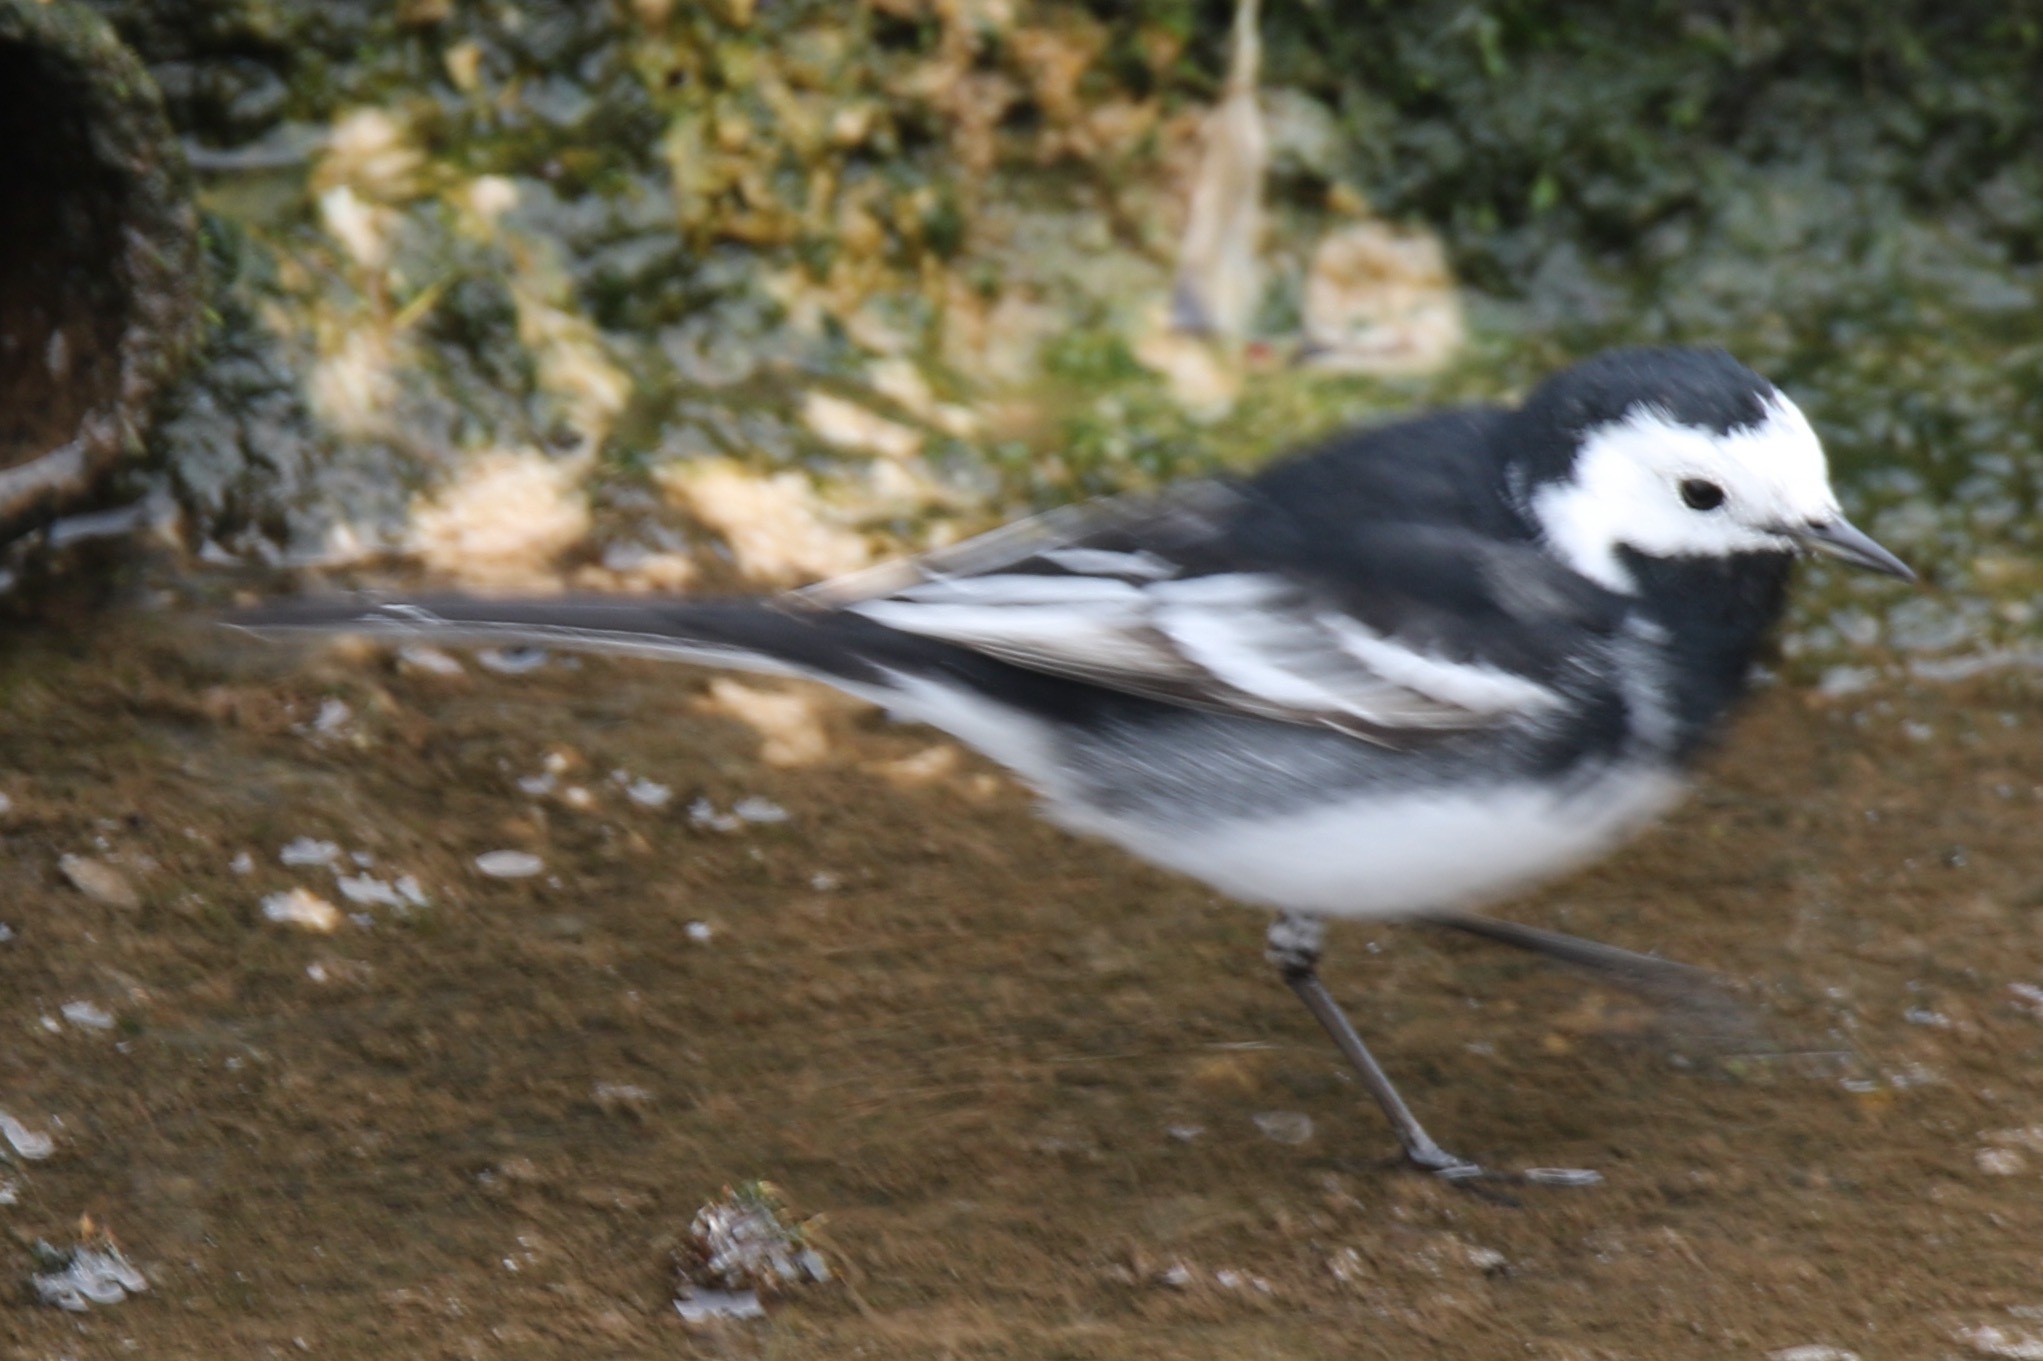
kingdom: Animalia
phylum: Chordata
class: Aves
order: Passeriformes
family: Motacillidae
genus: Motacilla
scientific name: Motacilla alba
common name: White wagtail
